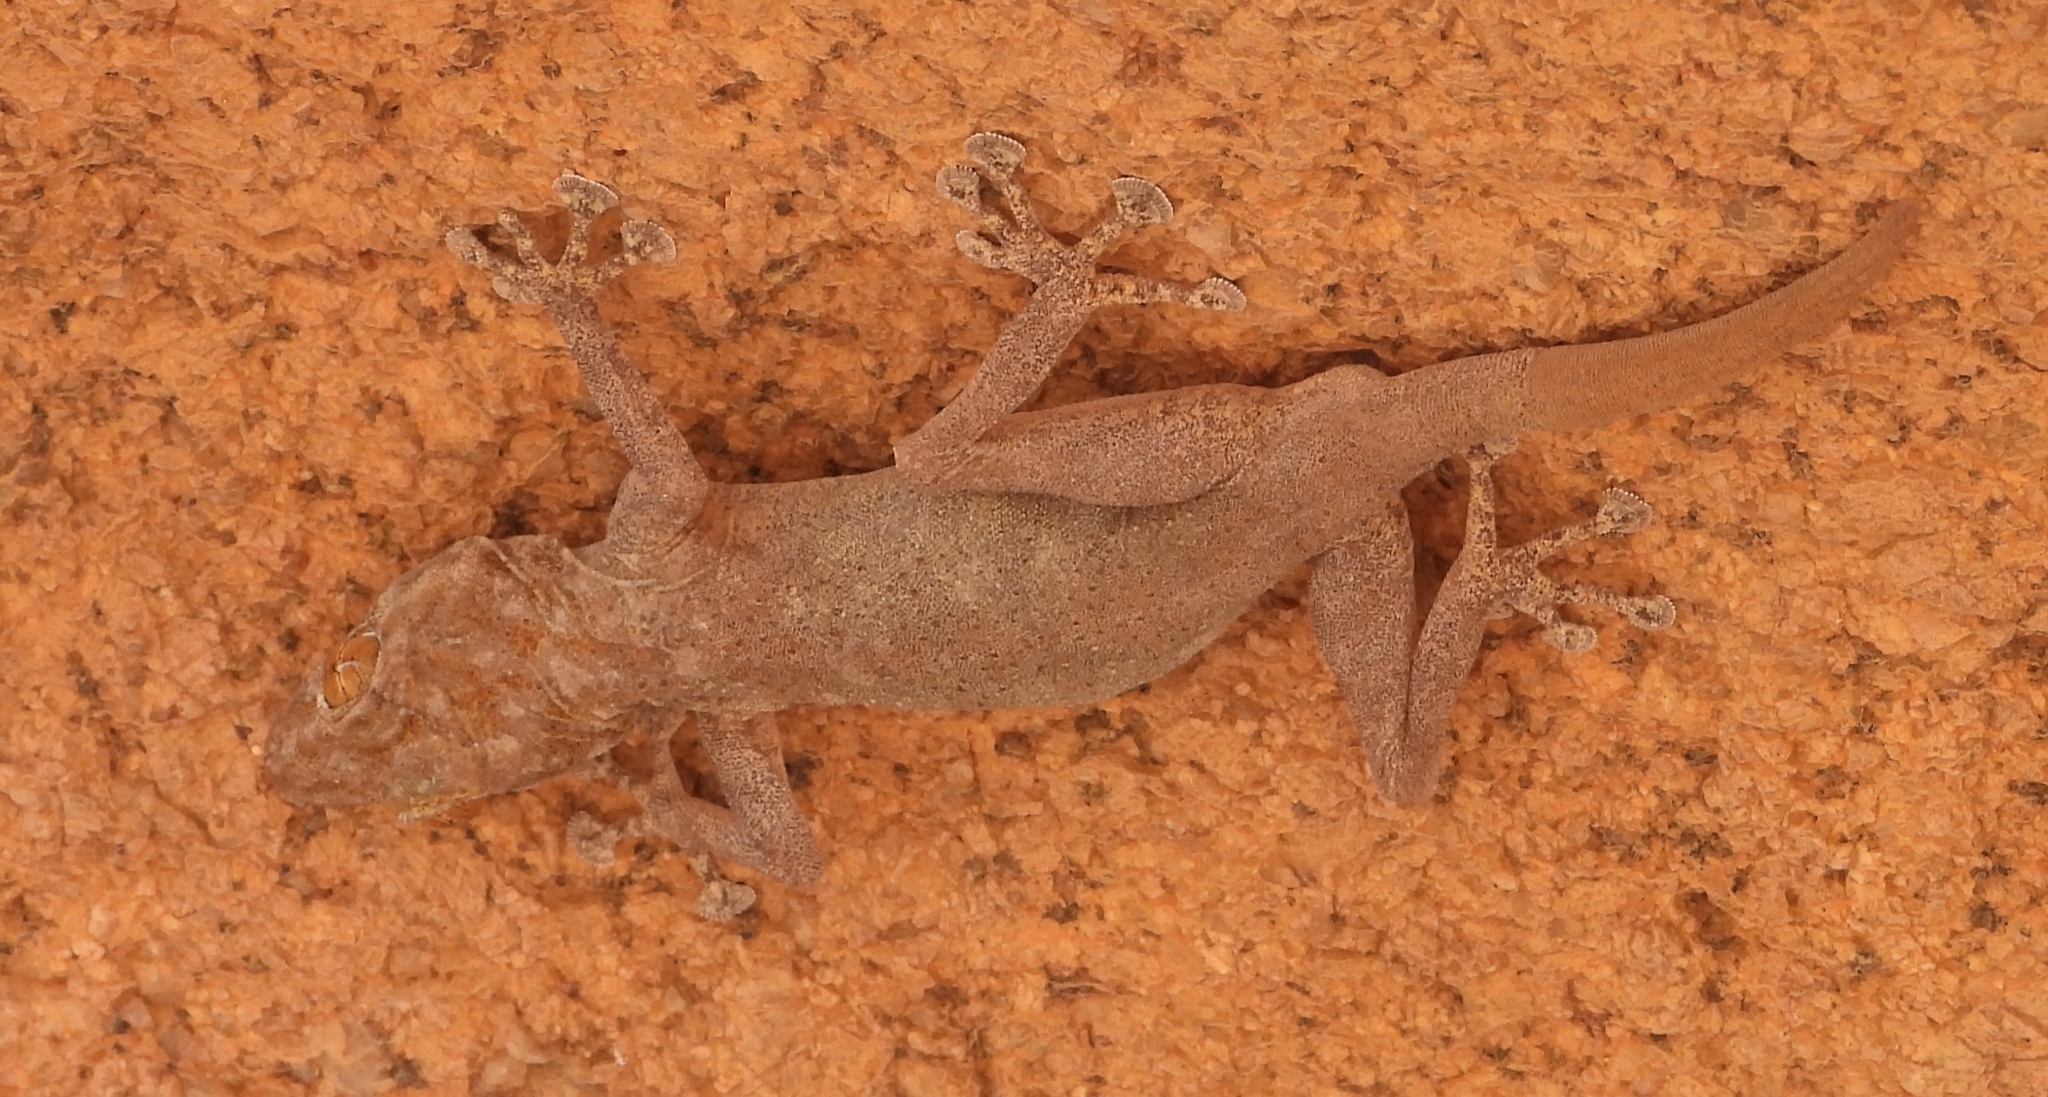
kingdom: Animalia
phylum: Chordata
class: Squamata
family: Phyllodactylidae
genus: Ptyodactylus
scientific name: Ptyodactylus hasselquistii
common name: Hasselquist’s fan-footed gecko
